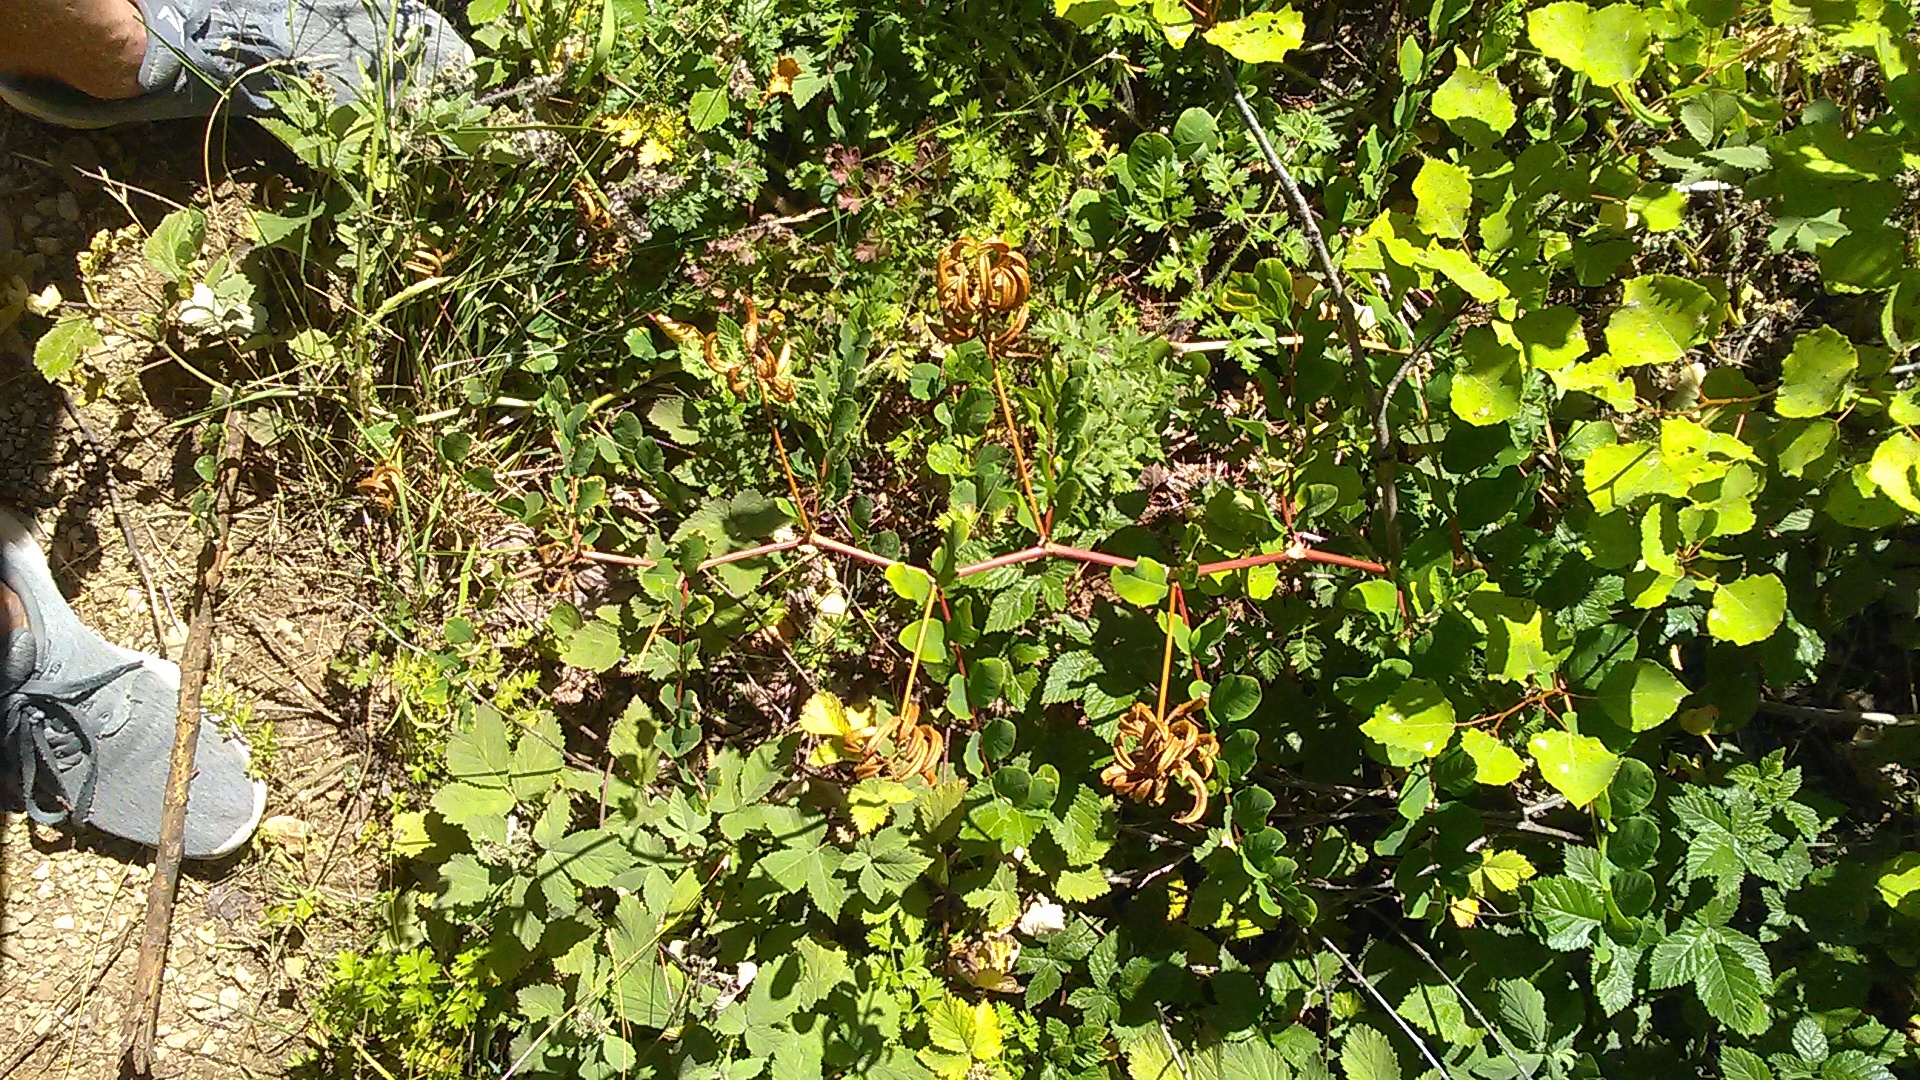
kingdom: Plantae
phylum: Tracheophyta
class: Magnoliopsida
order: Fabales
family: Fabaceae
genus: Astragalus
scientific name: Astragalus glycyphyllos
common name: Wild liquorice
